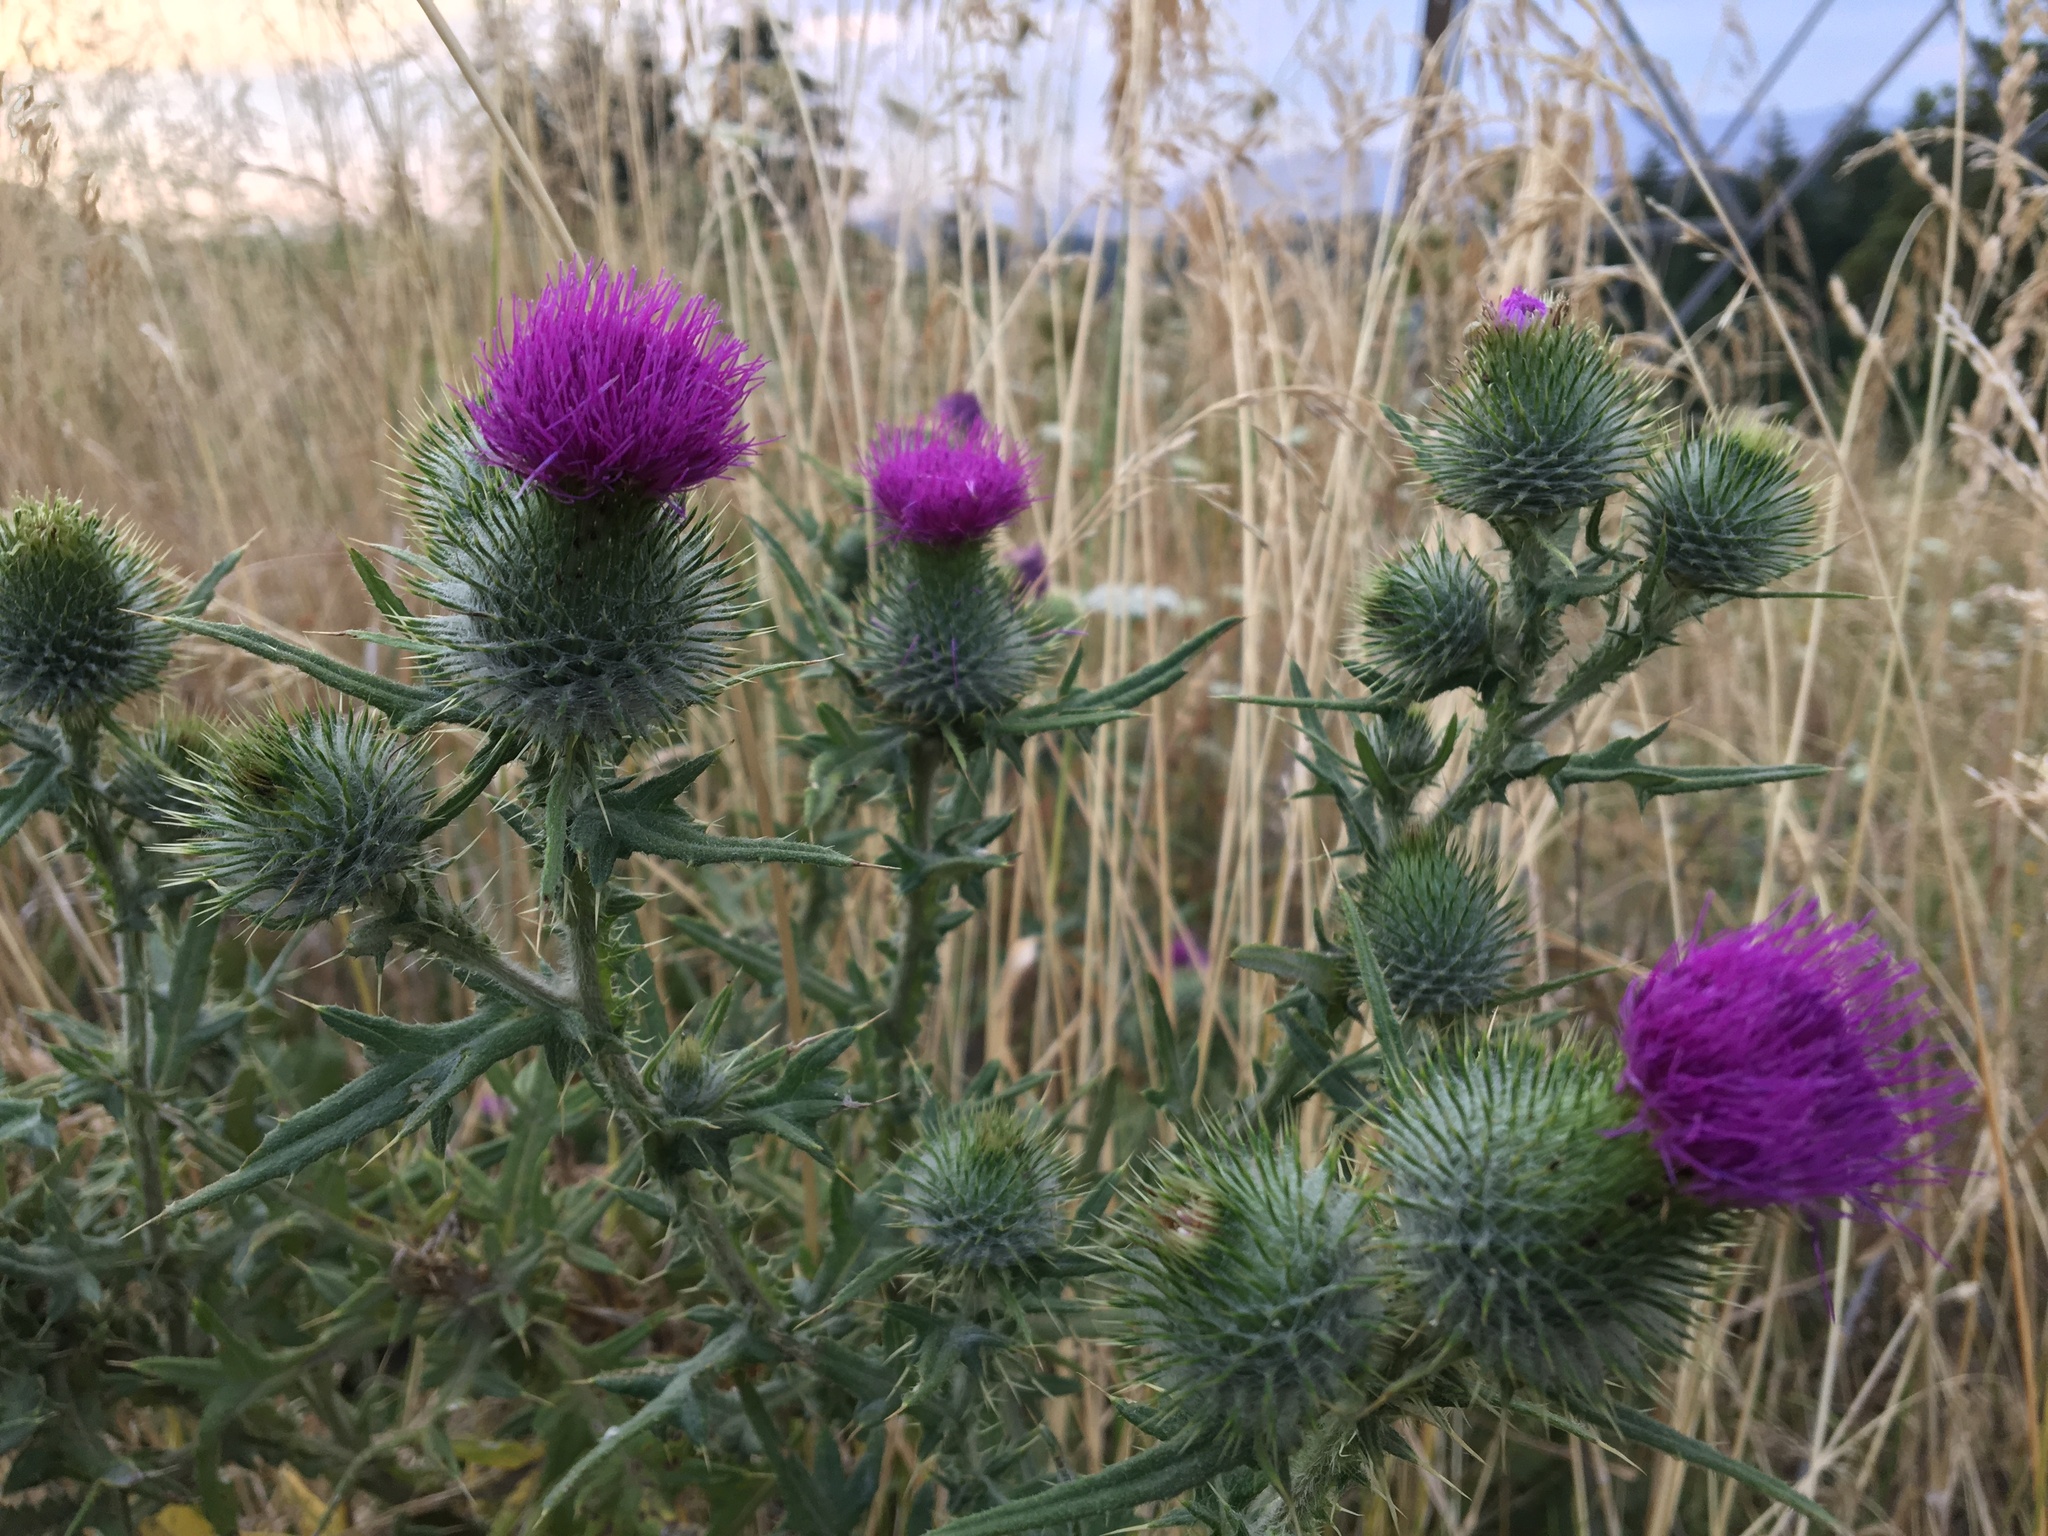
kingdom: Plantae
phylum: Tracheophyta
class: Magnoliopsida
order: Asterales
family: Asteraceae
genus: Cirsium
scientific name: Cirsium vulgare
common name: Bull thistle
